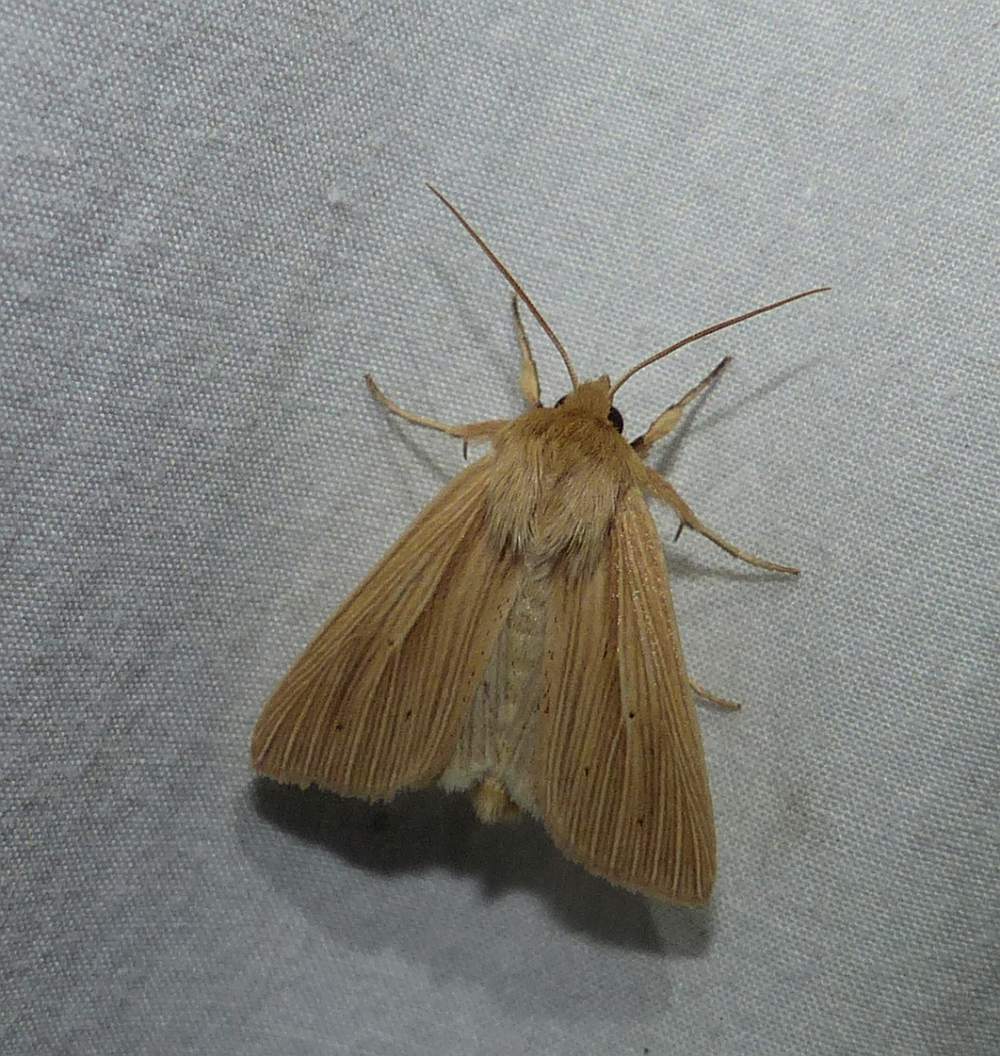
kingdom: Animalia
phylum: Arthropoda
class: Insecta
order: Lepidoptera
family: Noctuidae
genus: Mythimna
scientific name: Mythimna oxygala
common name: Lesser wainscot
